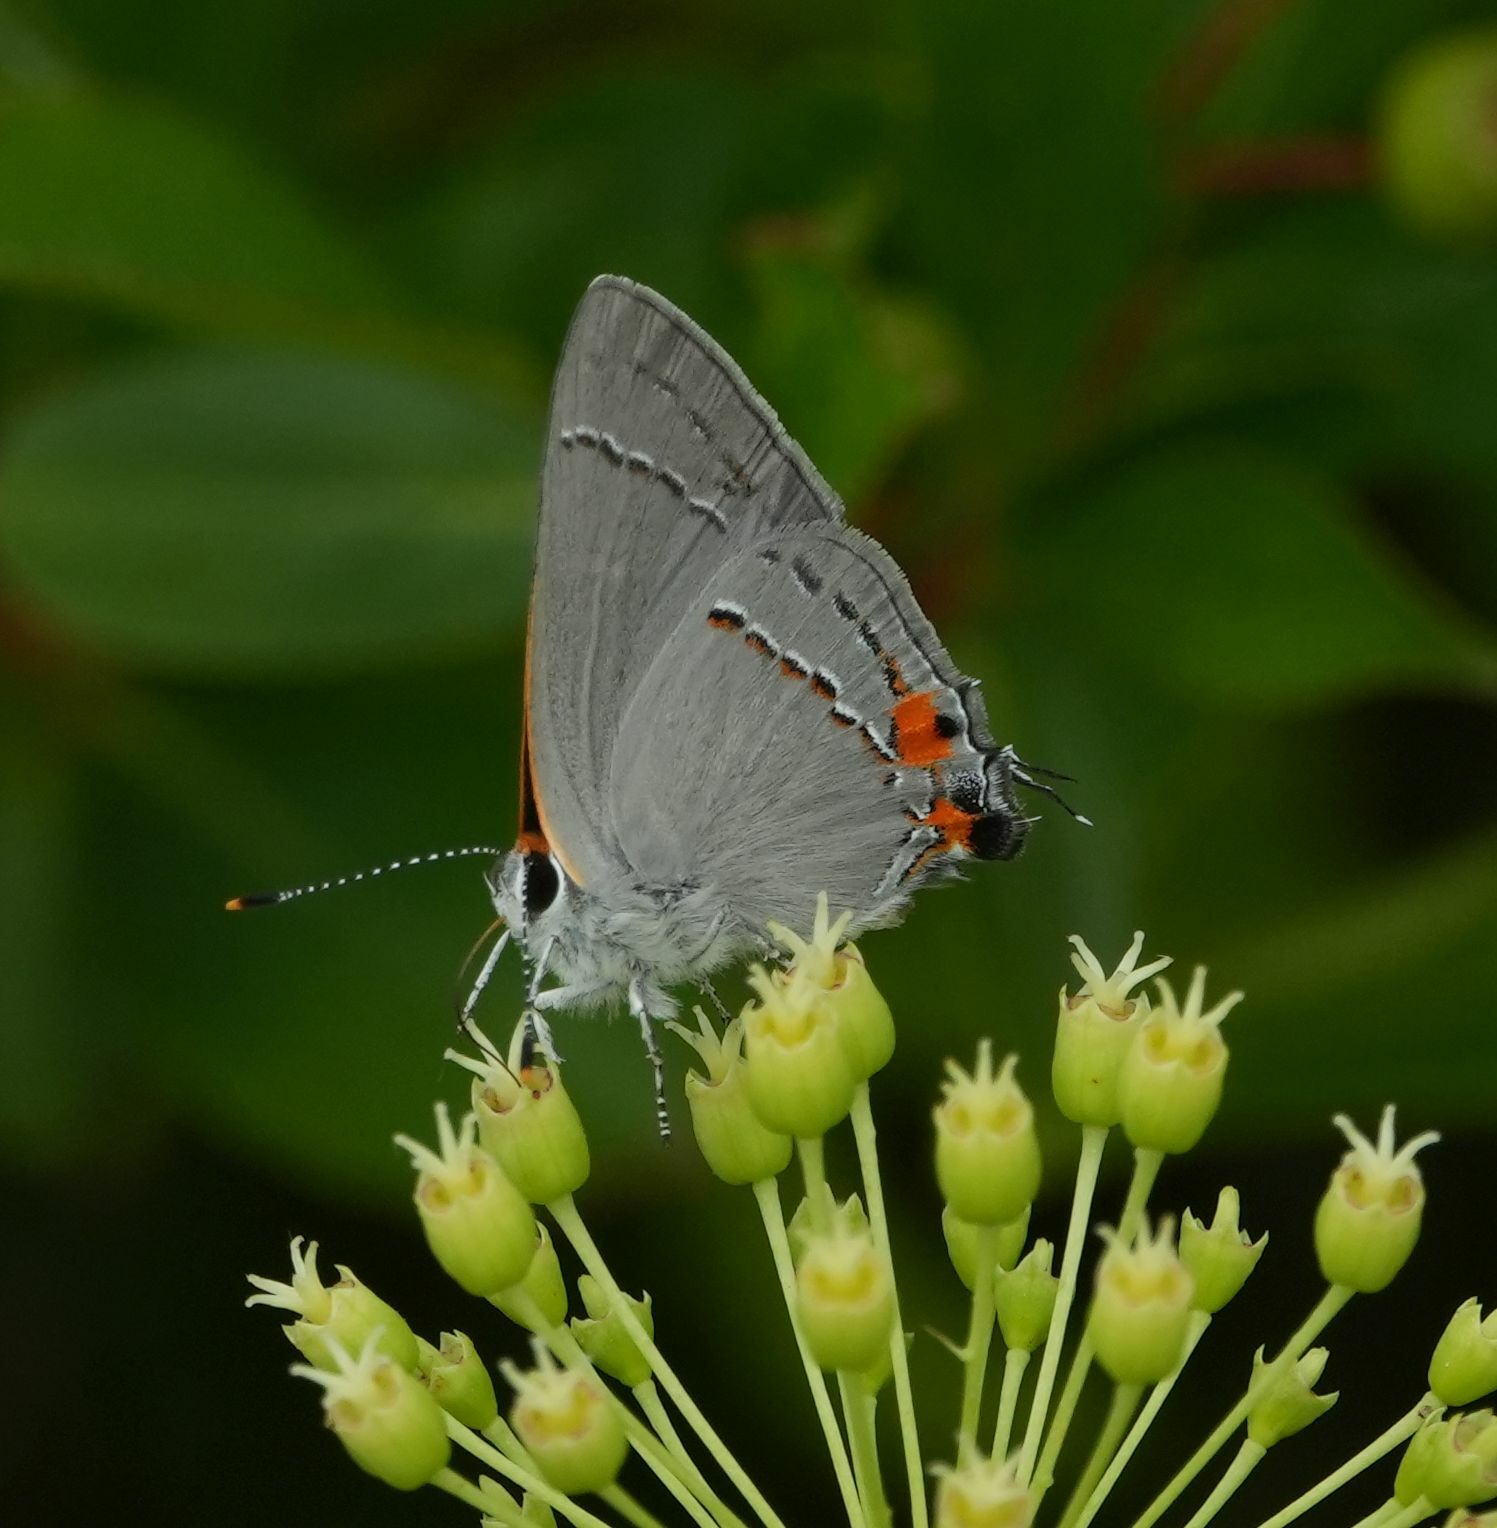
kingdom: Animalia
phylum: Arthropoda
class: Insecta
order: Lepidoptera
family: Lycaenidae
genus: Strymon
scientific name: Strymon melinus
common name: Gray hairstreak
